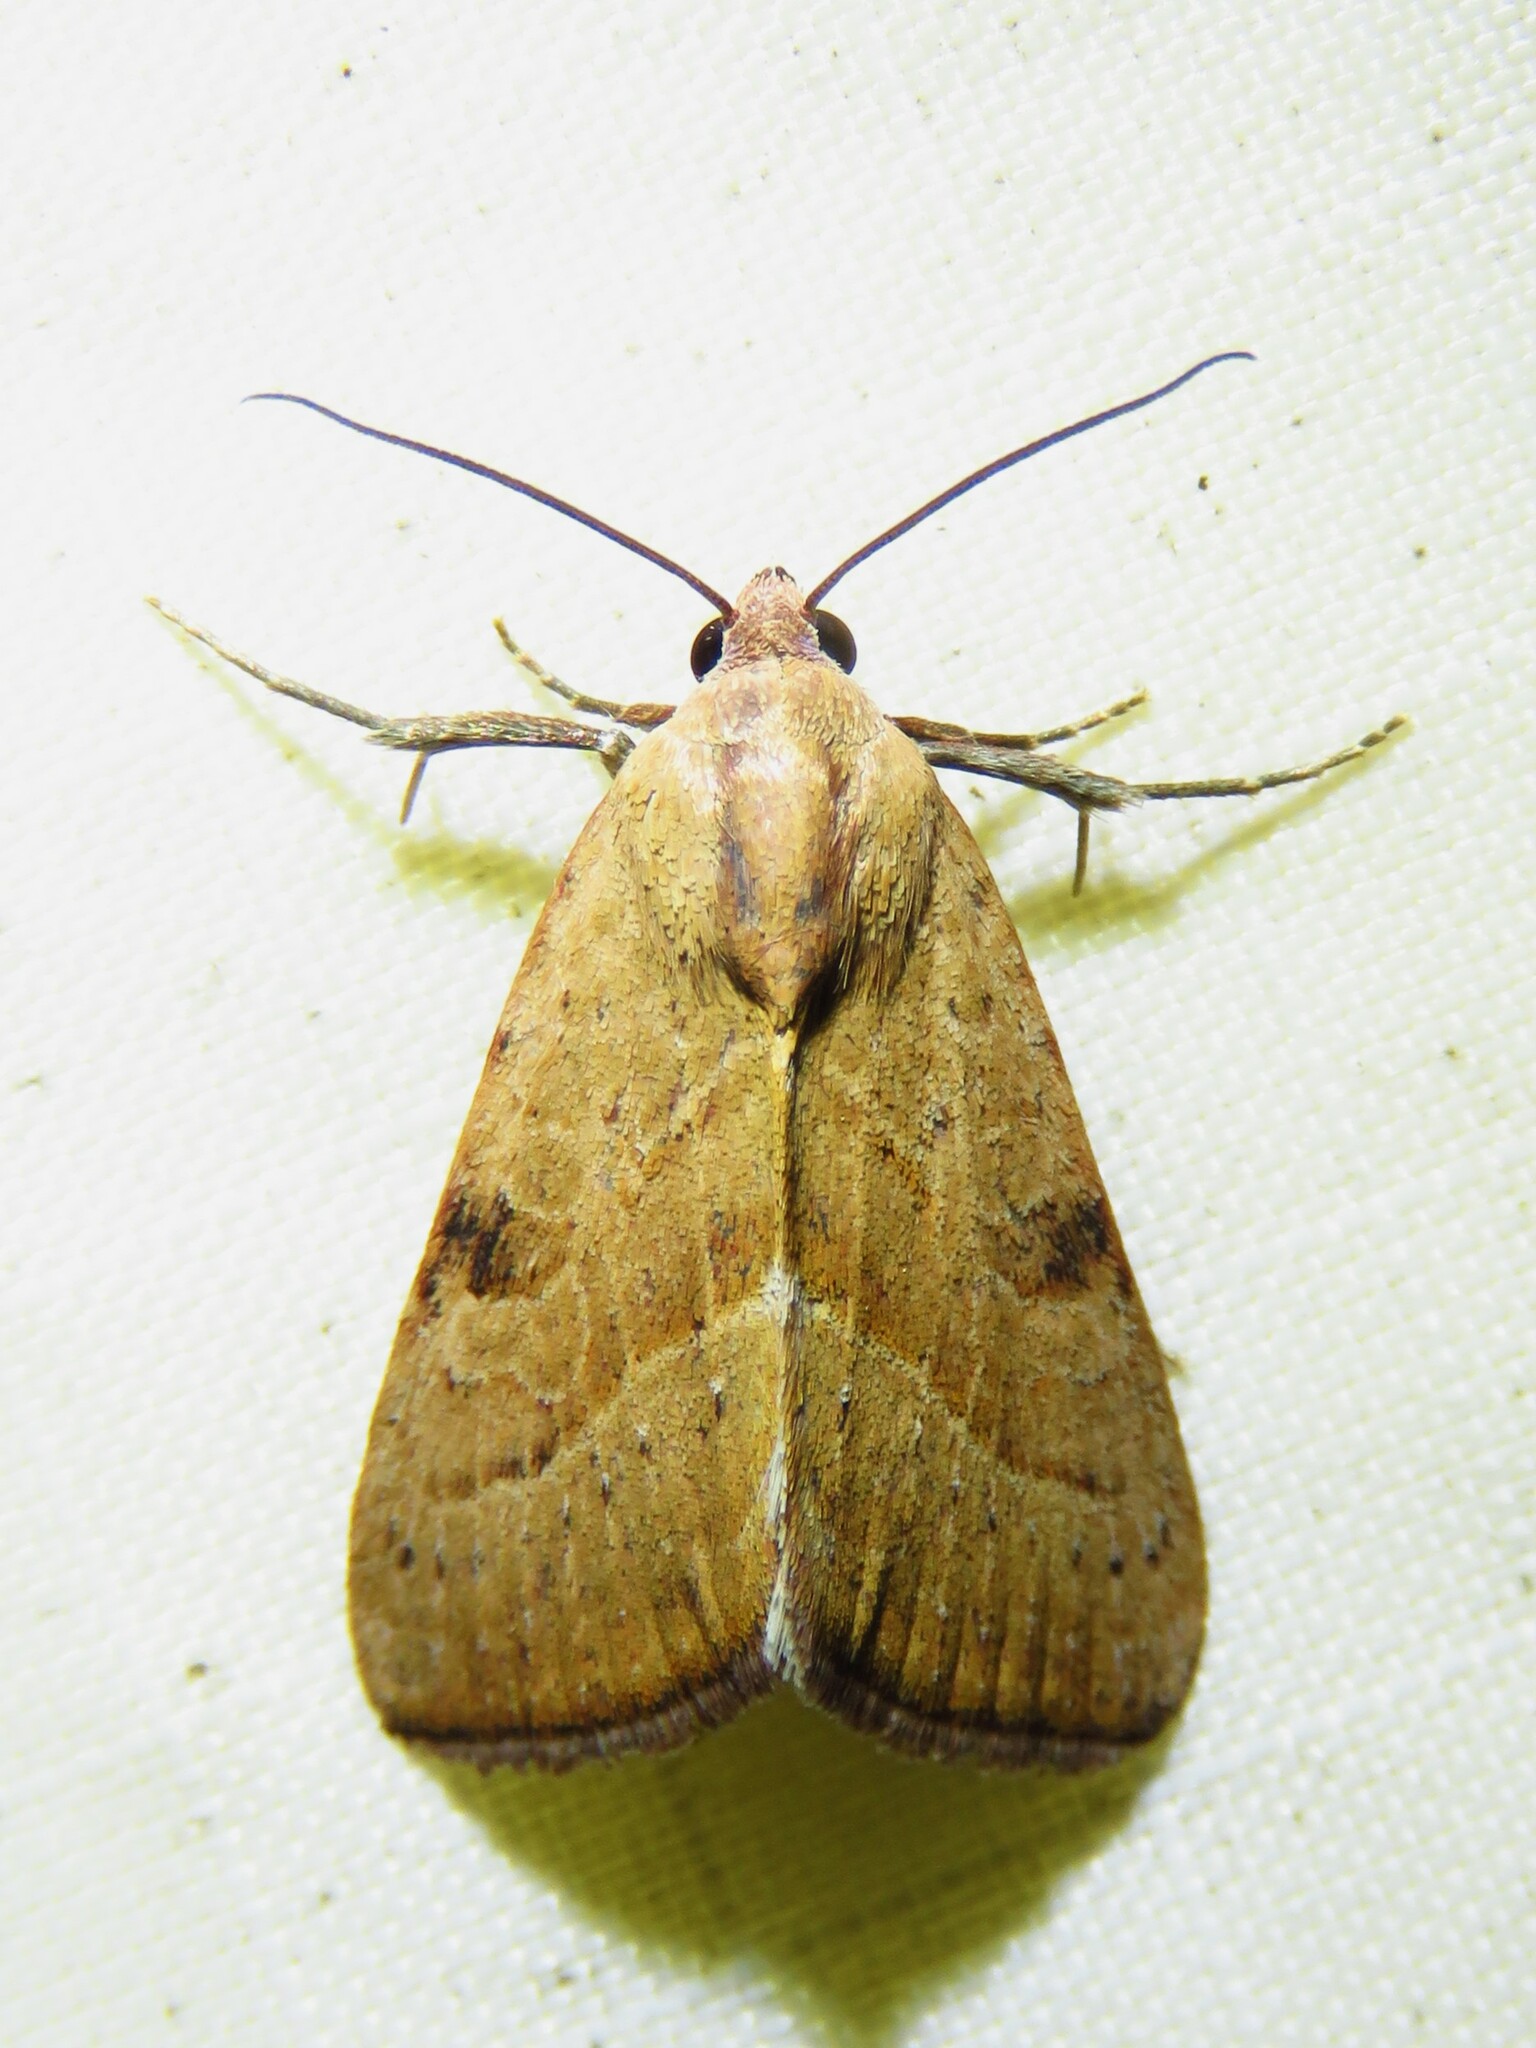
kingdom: Animalia
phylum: Arthropoda
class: Insecta
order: Lepidoptera
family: Noctuidae
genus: Galgula
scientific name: Galgula partita
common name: Wedgeling
